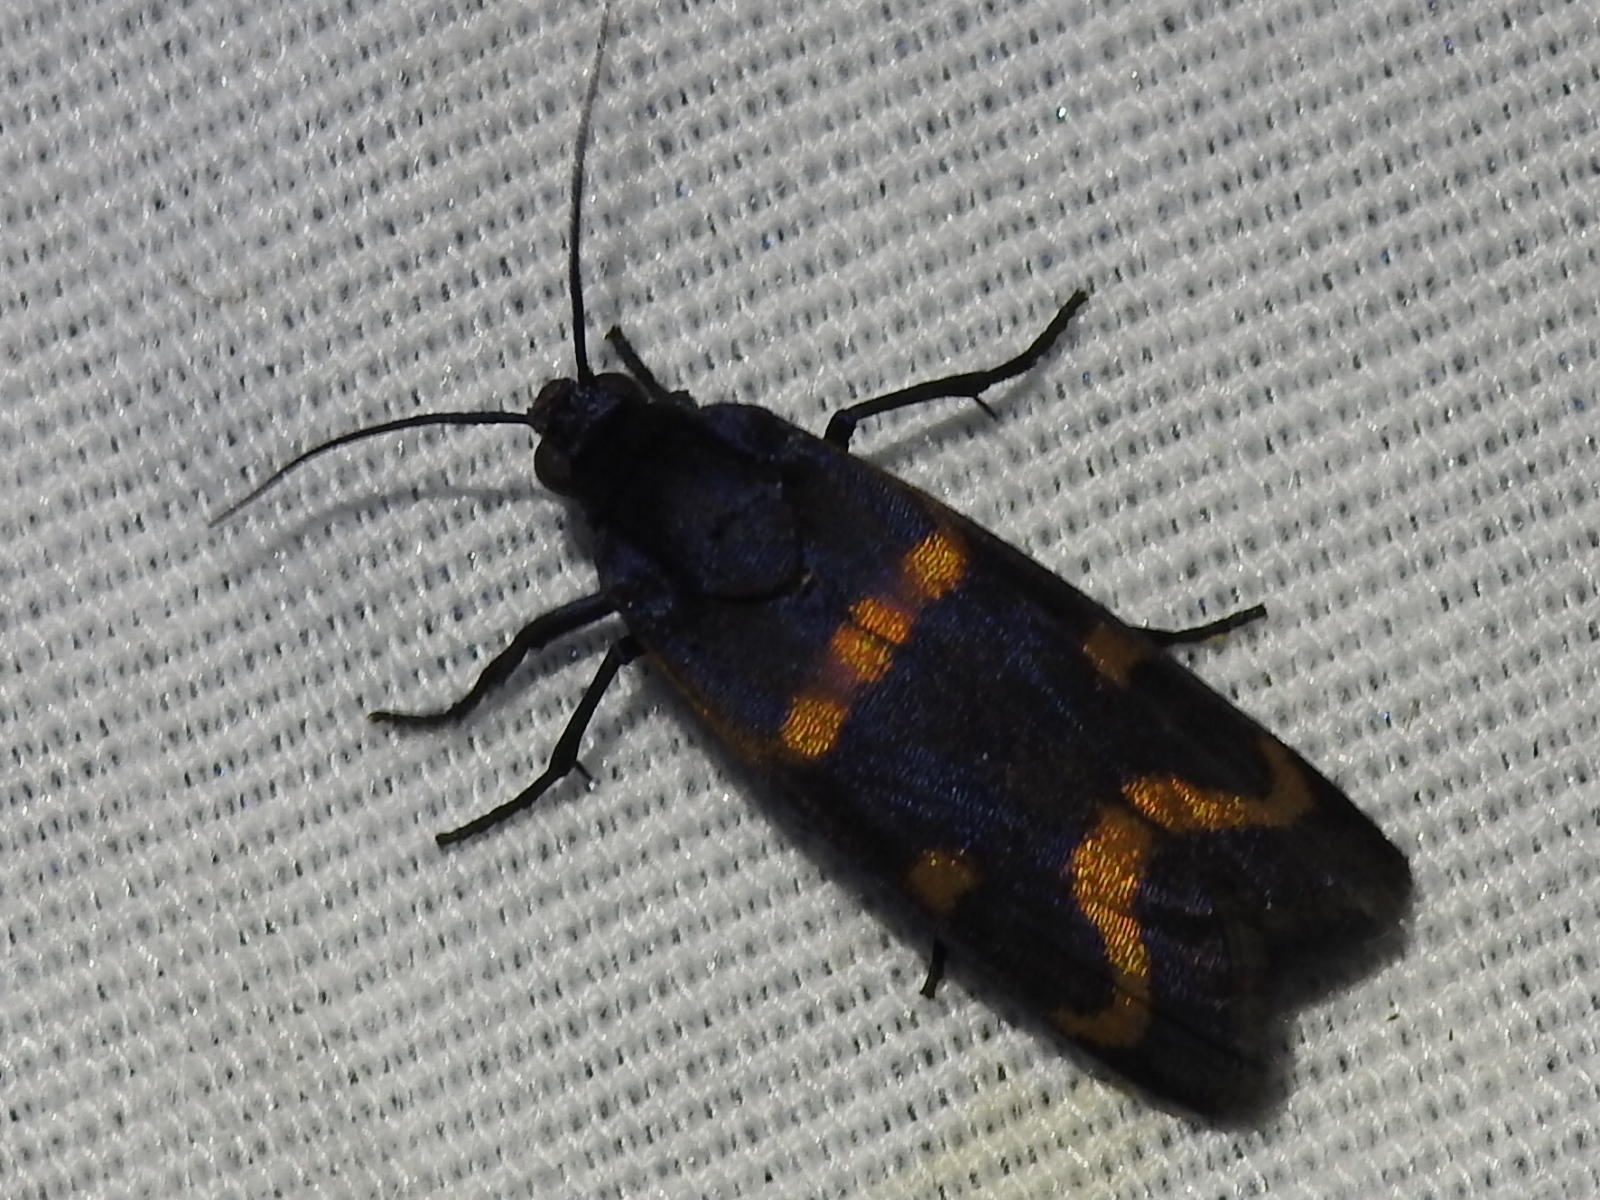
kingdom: Animalia
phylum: Arthropoda
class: Insecta
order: Lepidoptera
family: Noctuidae
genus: Cydosia
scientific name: Cydosia aurivitta
